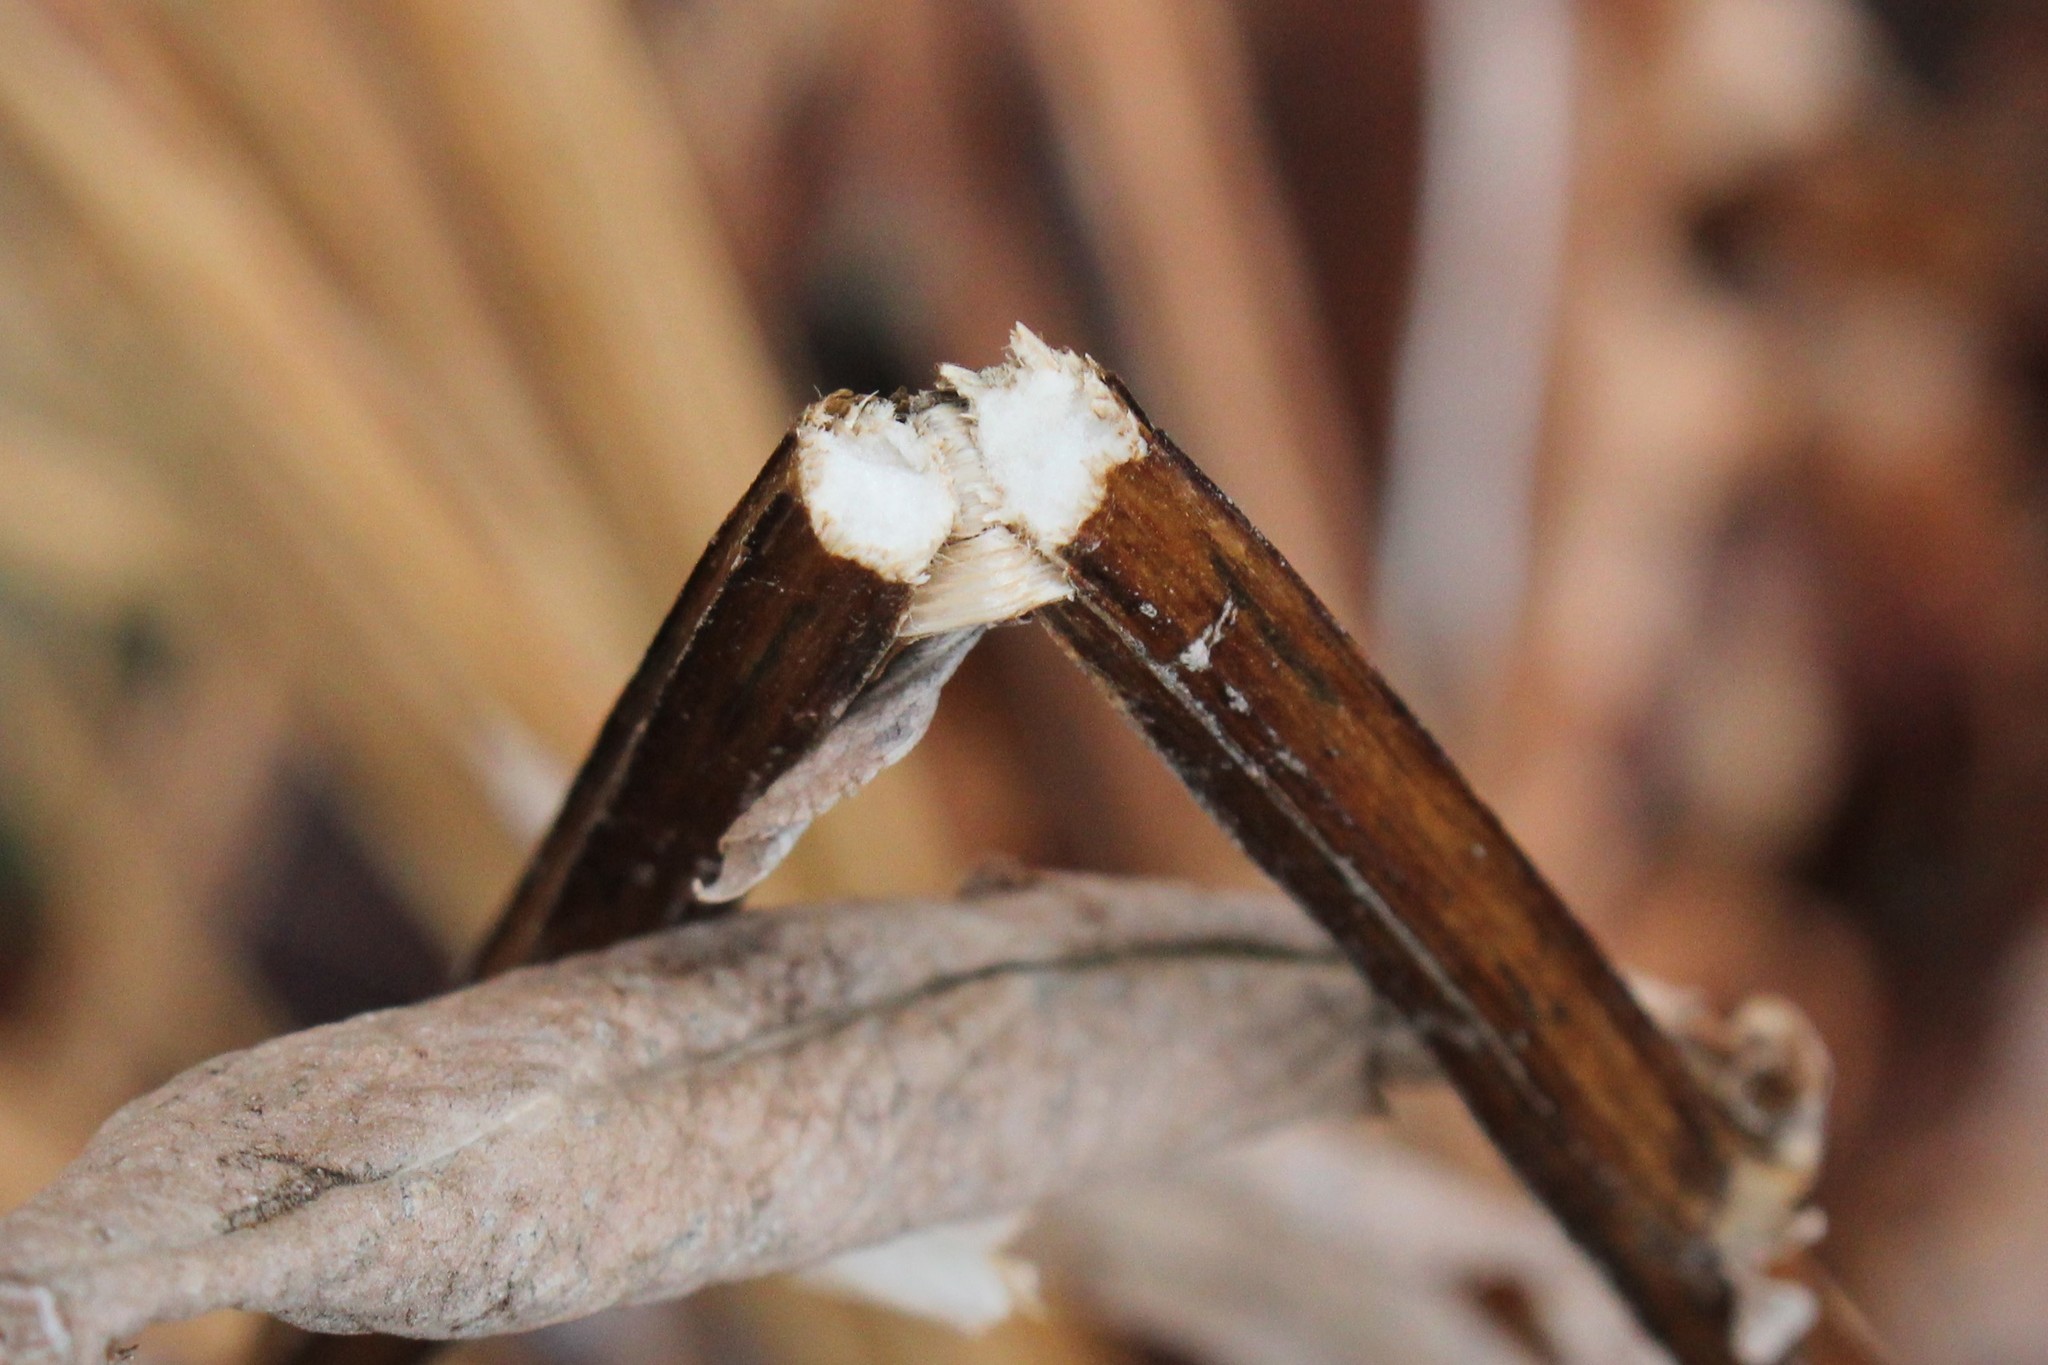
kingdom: Plantae
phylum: Tracheophyta
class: Magnoliopsida
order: Asterales
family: Asteraceae
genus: Solidago
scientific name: Solidago patula
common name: Rough-leaf goldenrod
